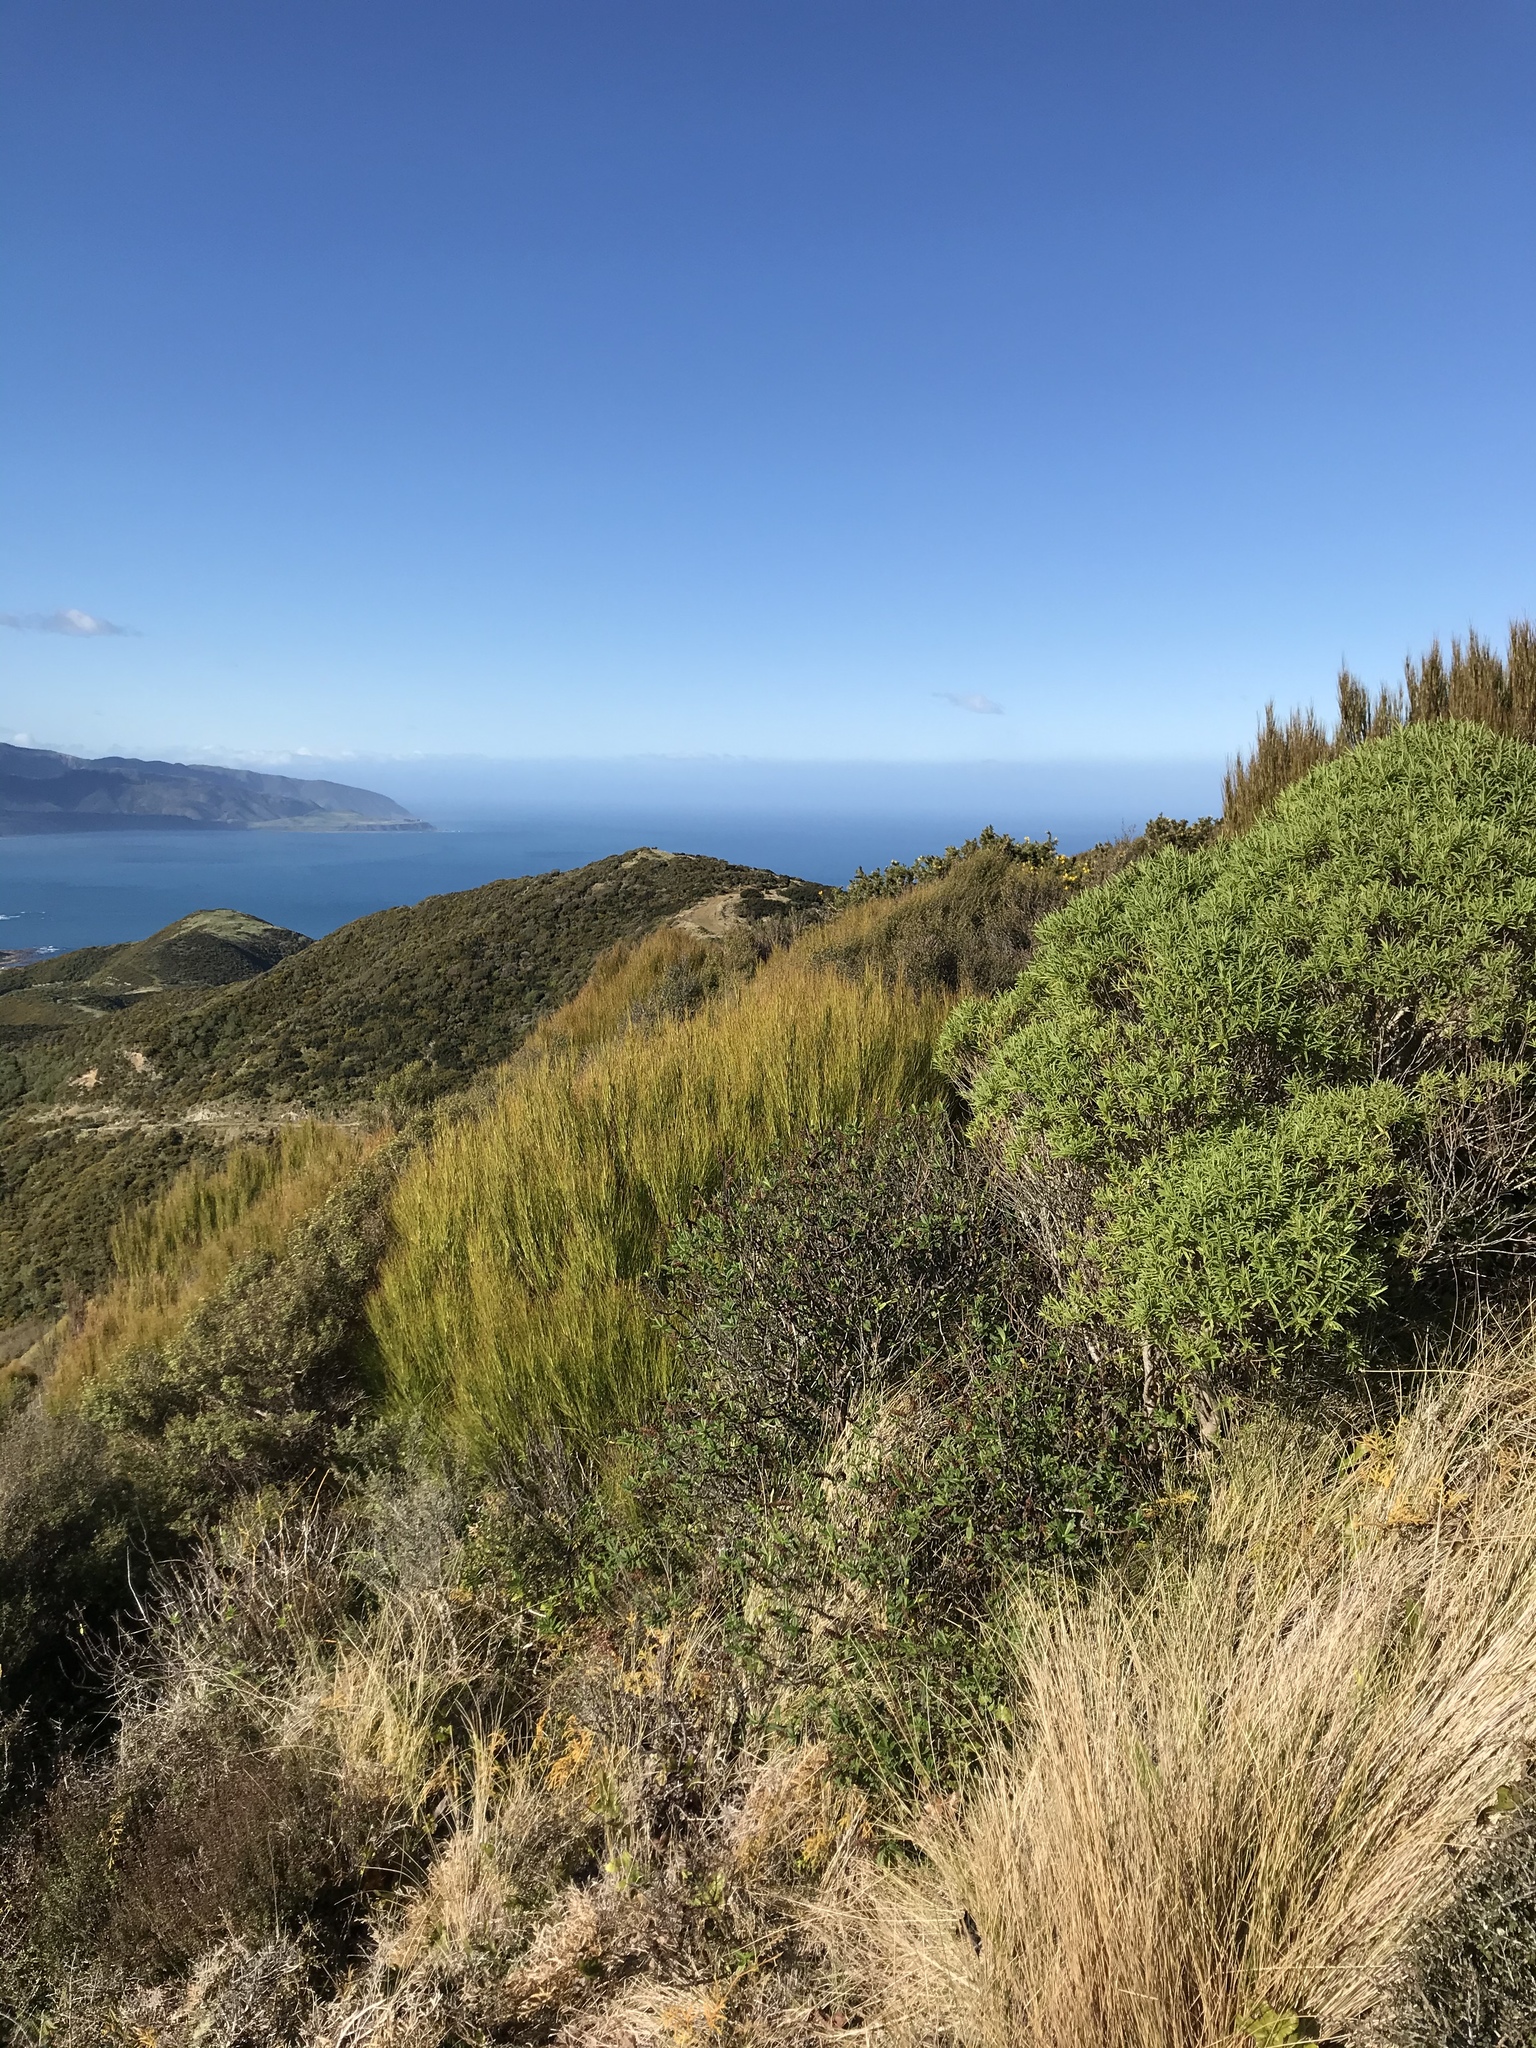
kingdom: Plantae
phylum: Tracheophyta
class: Magnoliopsida
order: Ericales
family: Ericaceae
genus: Dracophyllum
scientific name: Dracophyllum filifolium
